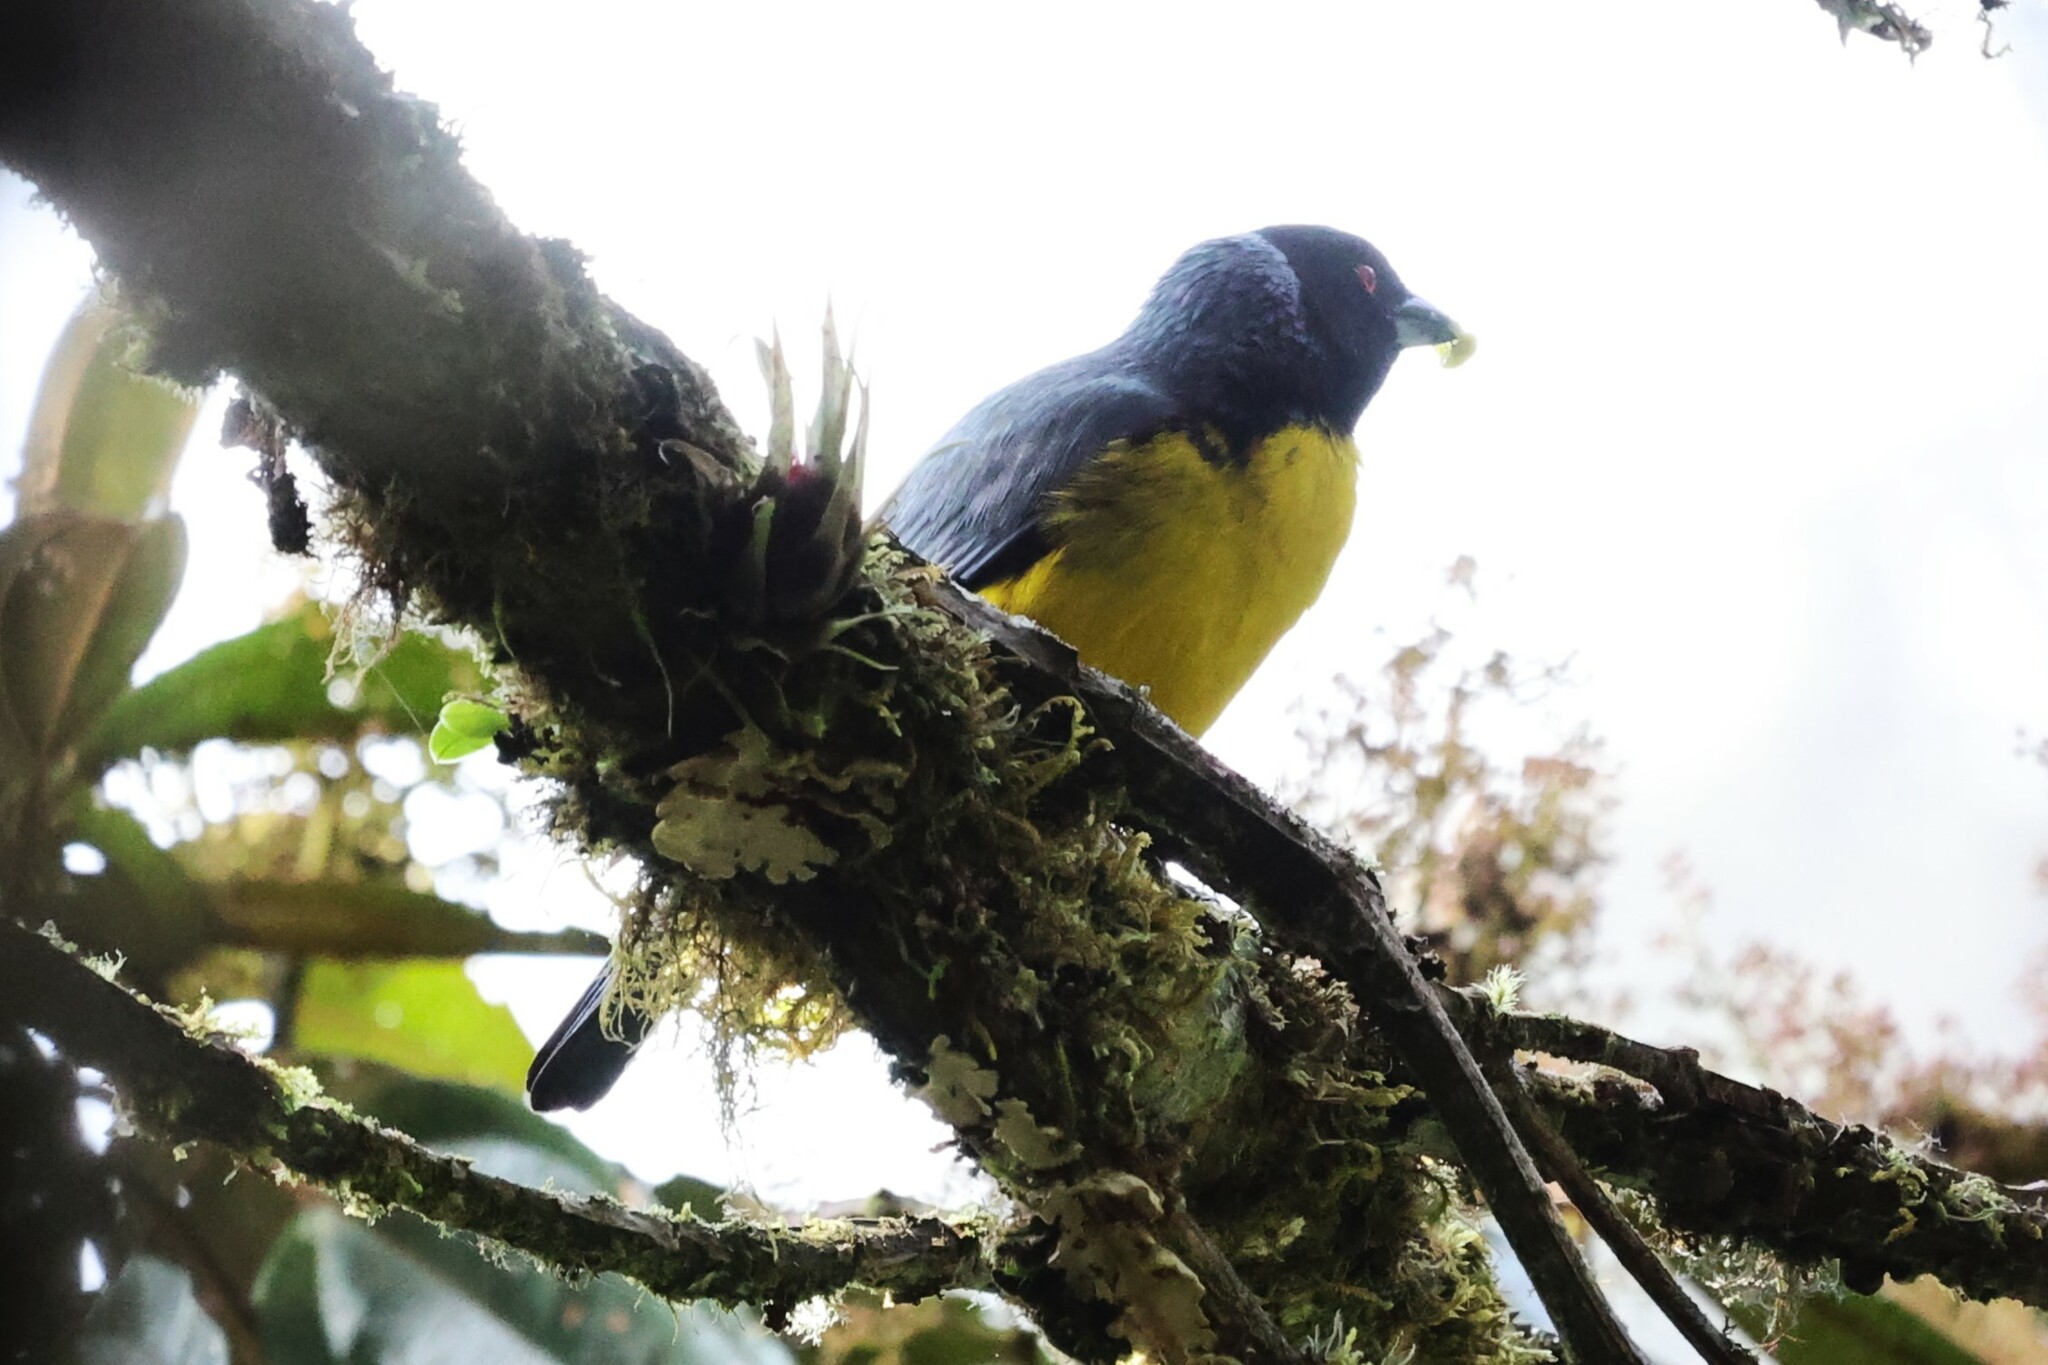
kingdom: Animalia
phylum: Chordata
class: Aves
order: Passeriformes
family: Thraupidae
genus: Buthraupis
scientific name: Buthraupis montana
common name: Hooded mountain tanager
